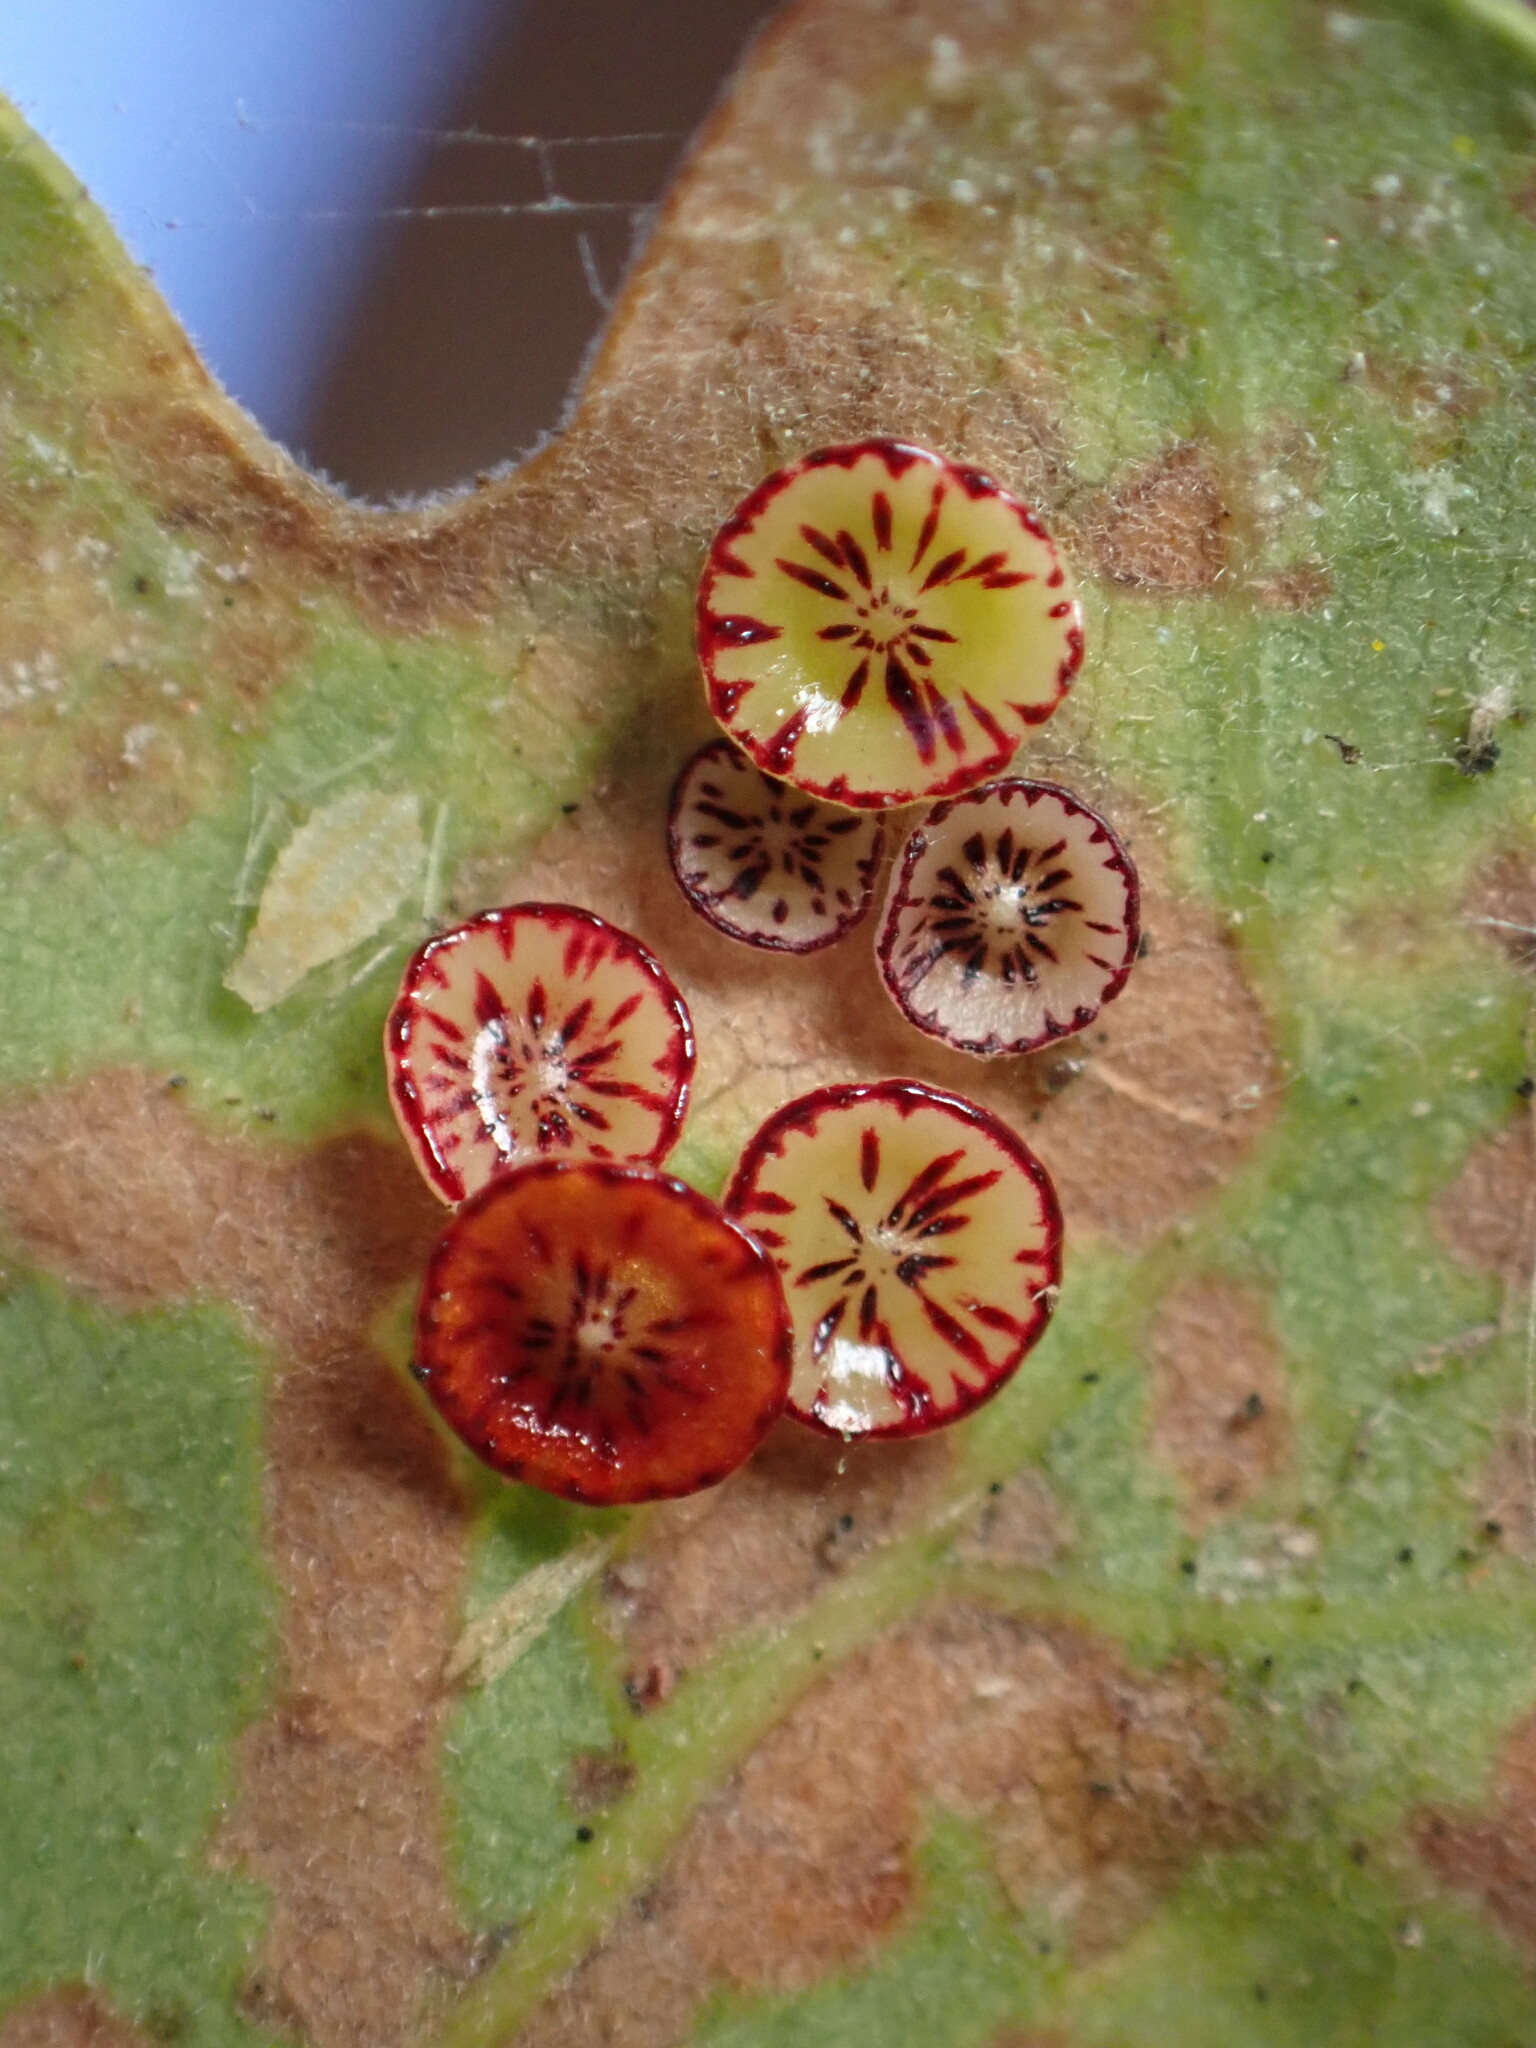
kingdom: Animalia
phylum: Arthropoda
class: Insecta
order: Hymenoptera
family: Cynipidae
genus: Andricus
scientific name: Andricus
